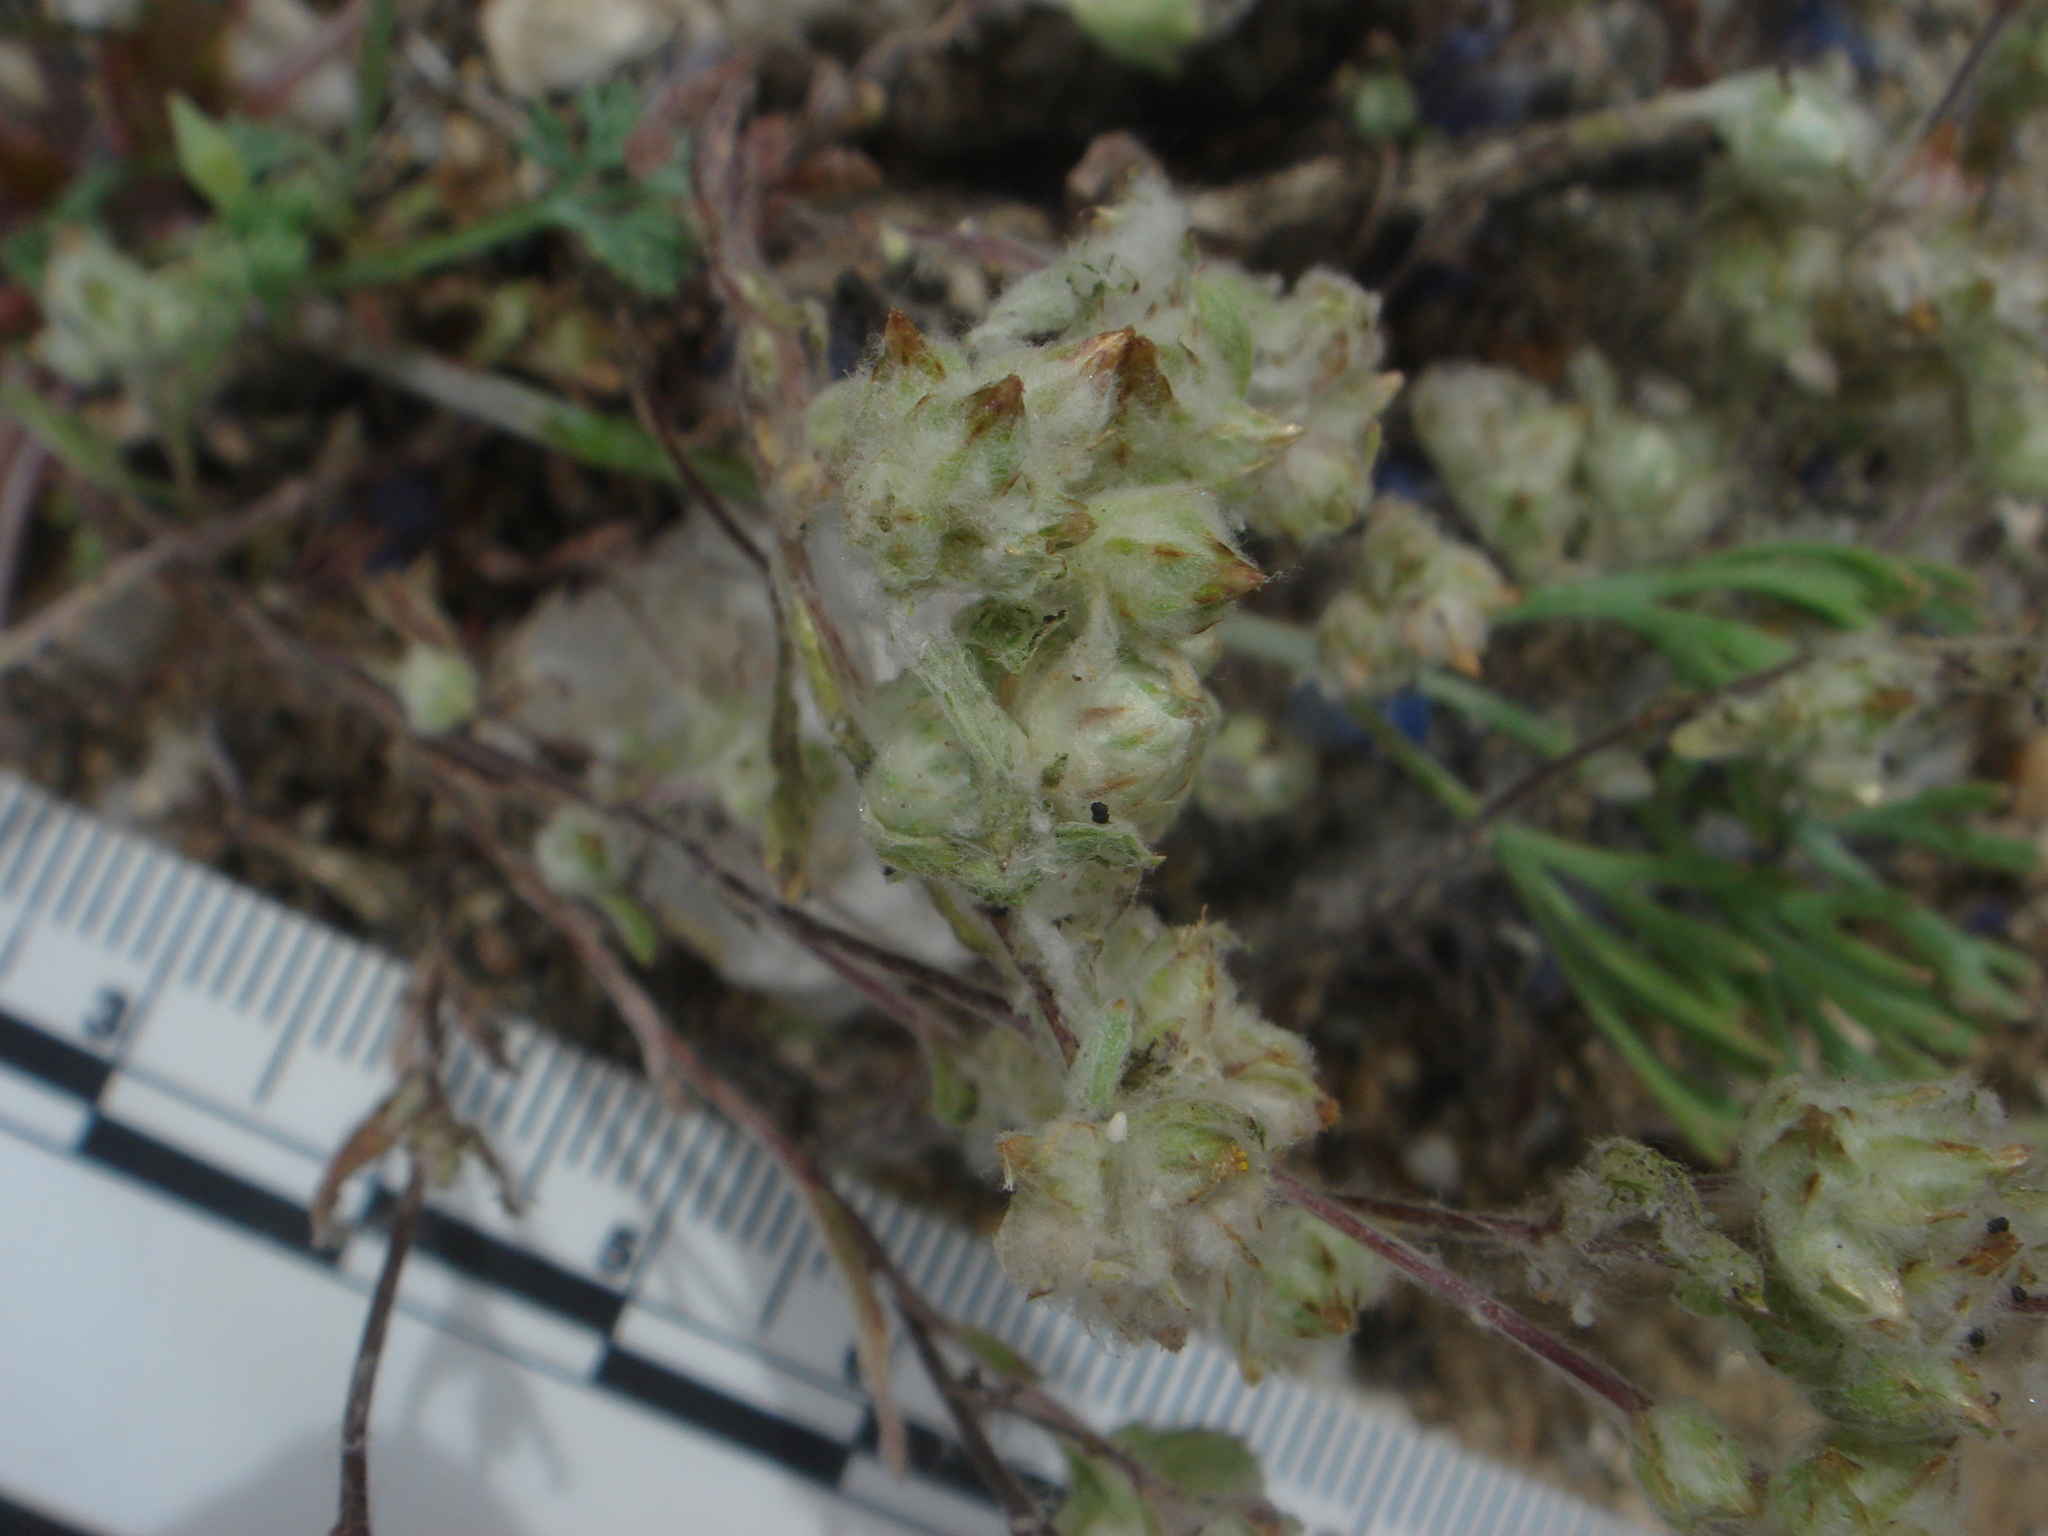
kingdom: Plantae
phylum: Tracheophyta
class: Magnoliopsida
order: Asterales
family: Asteraceae
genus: Logfia
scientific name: Logfia californica
